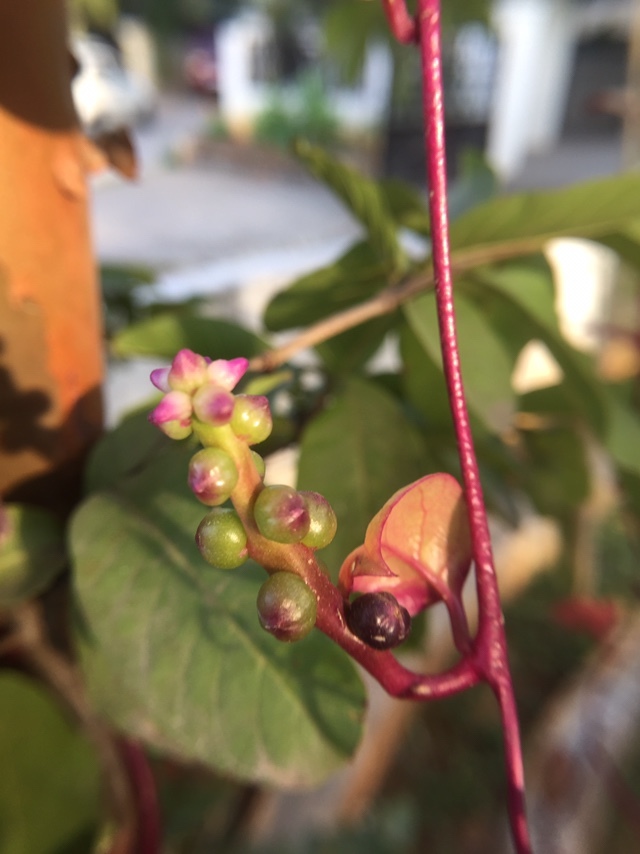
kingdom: Plantae
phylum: Tracheophyta
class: Magnoliopsida
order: Caryophyllales
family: Basellaceae
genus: Basella
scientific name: Basella alba
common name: Indian spinach
